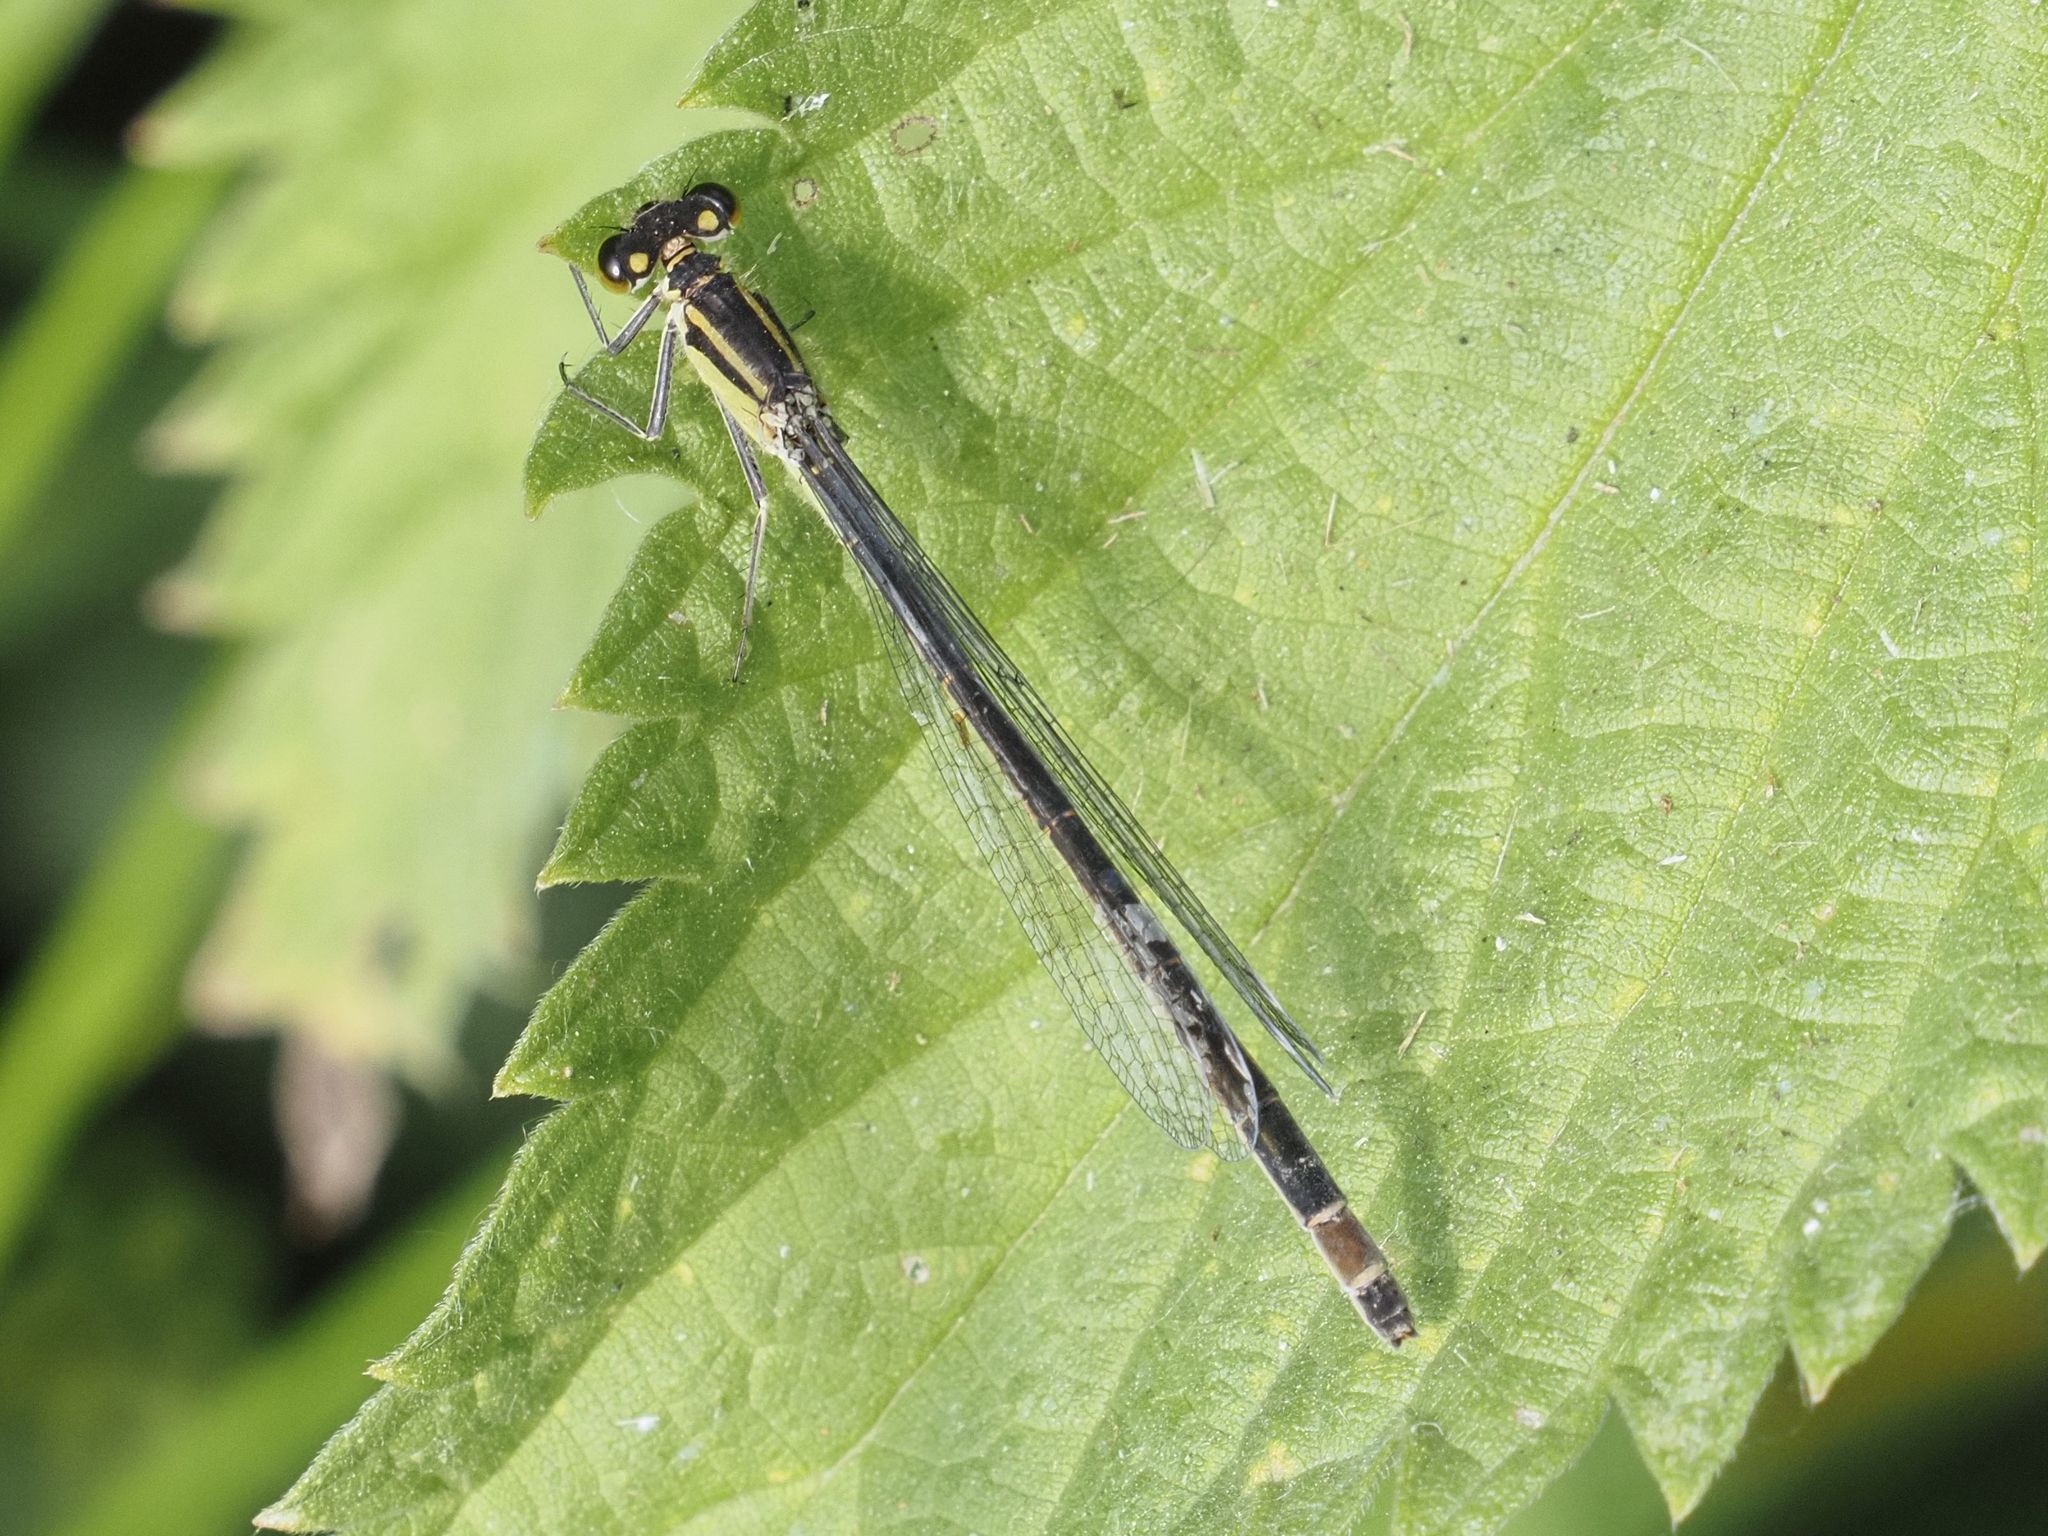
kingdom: Animalia
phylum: Arthropoda
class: Insecta
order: Odonata
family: Coenagrionidae
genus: Ischnura
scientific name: Ischnura elegans
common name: Blue-tailed damselfly
